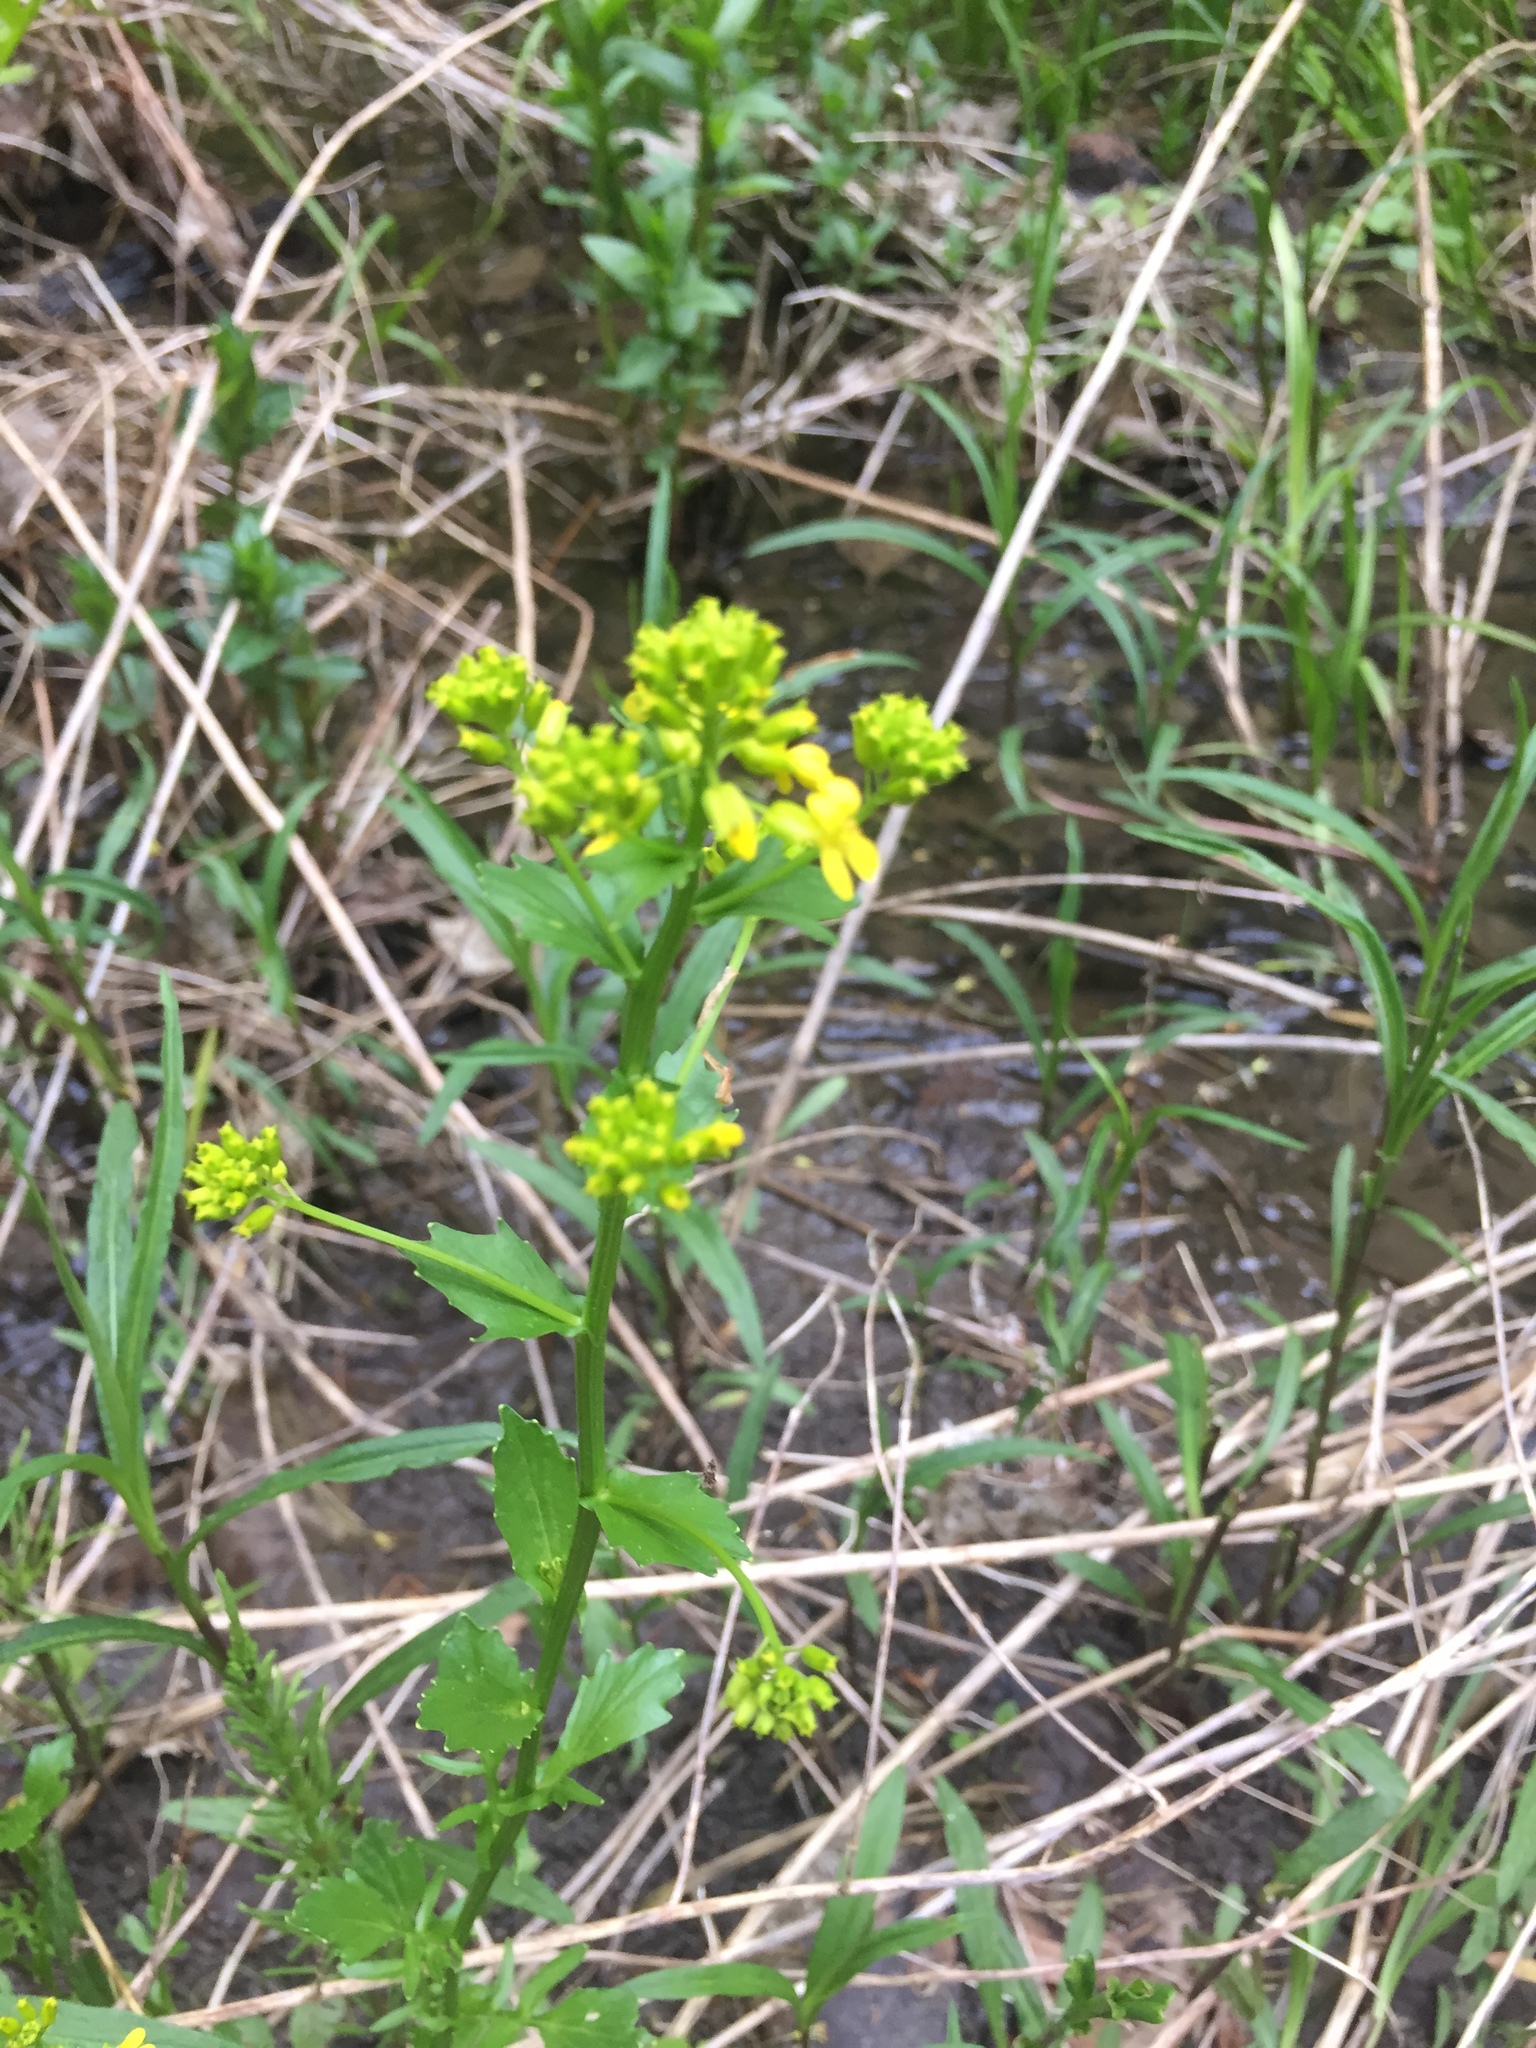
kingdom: Plantae
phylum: Tracheophyta
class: Magnoliopsida
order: Brassicales
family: Brassicaceae
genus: Barbarea
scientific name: Barbarea vulgaris
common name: Cressy-greens
